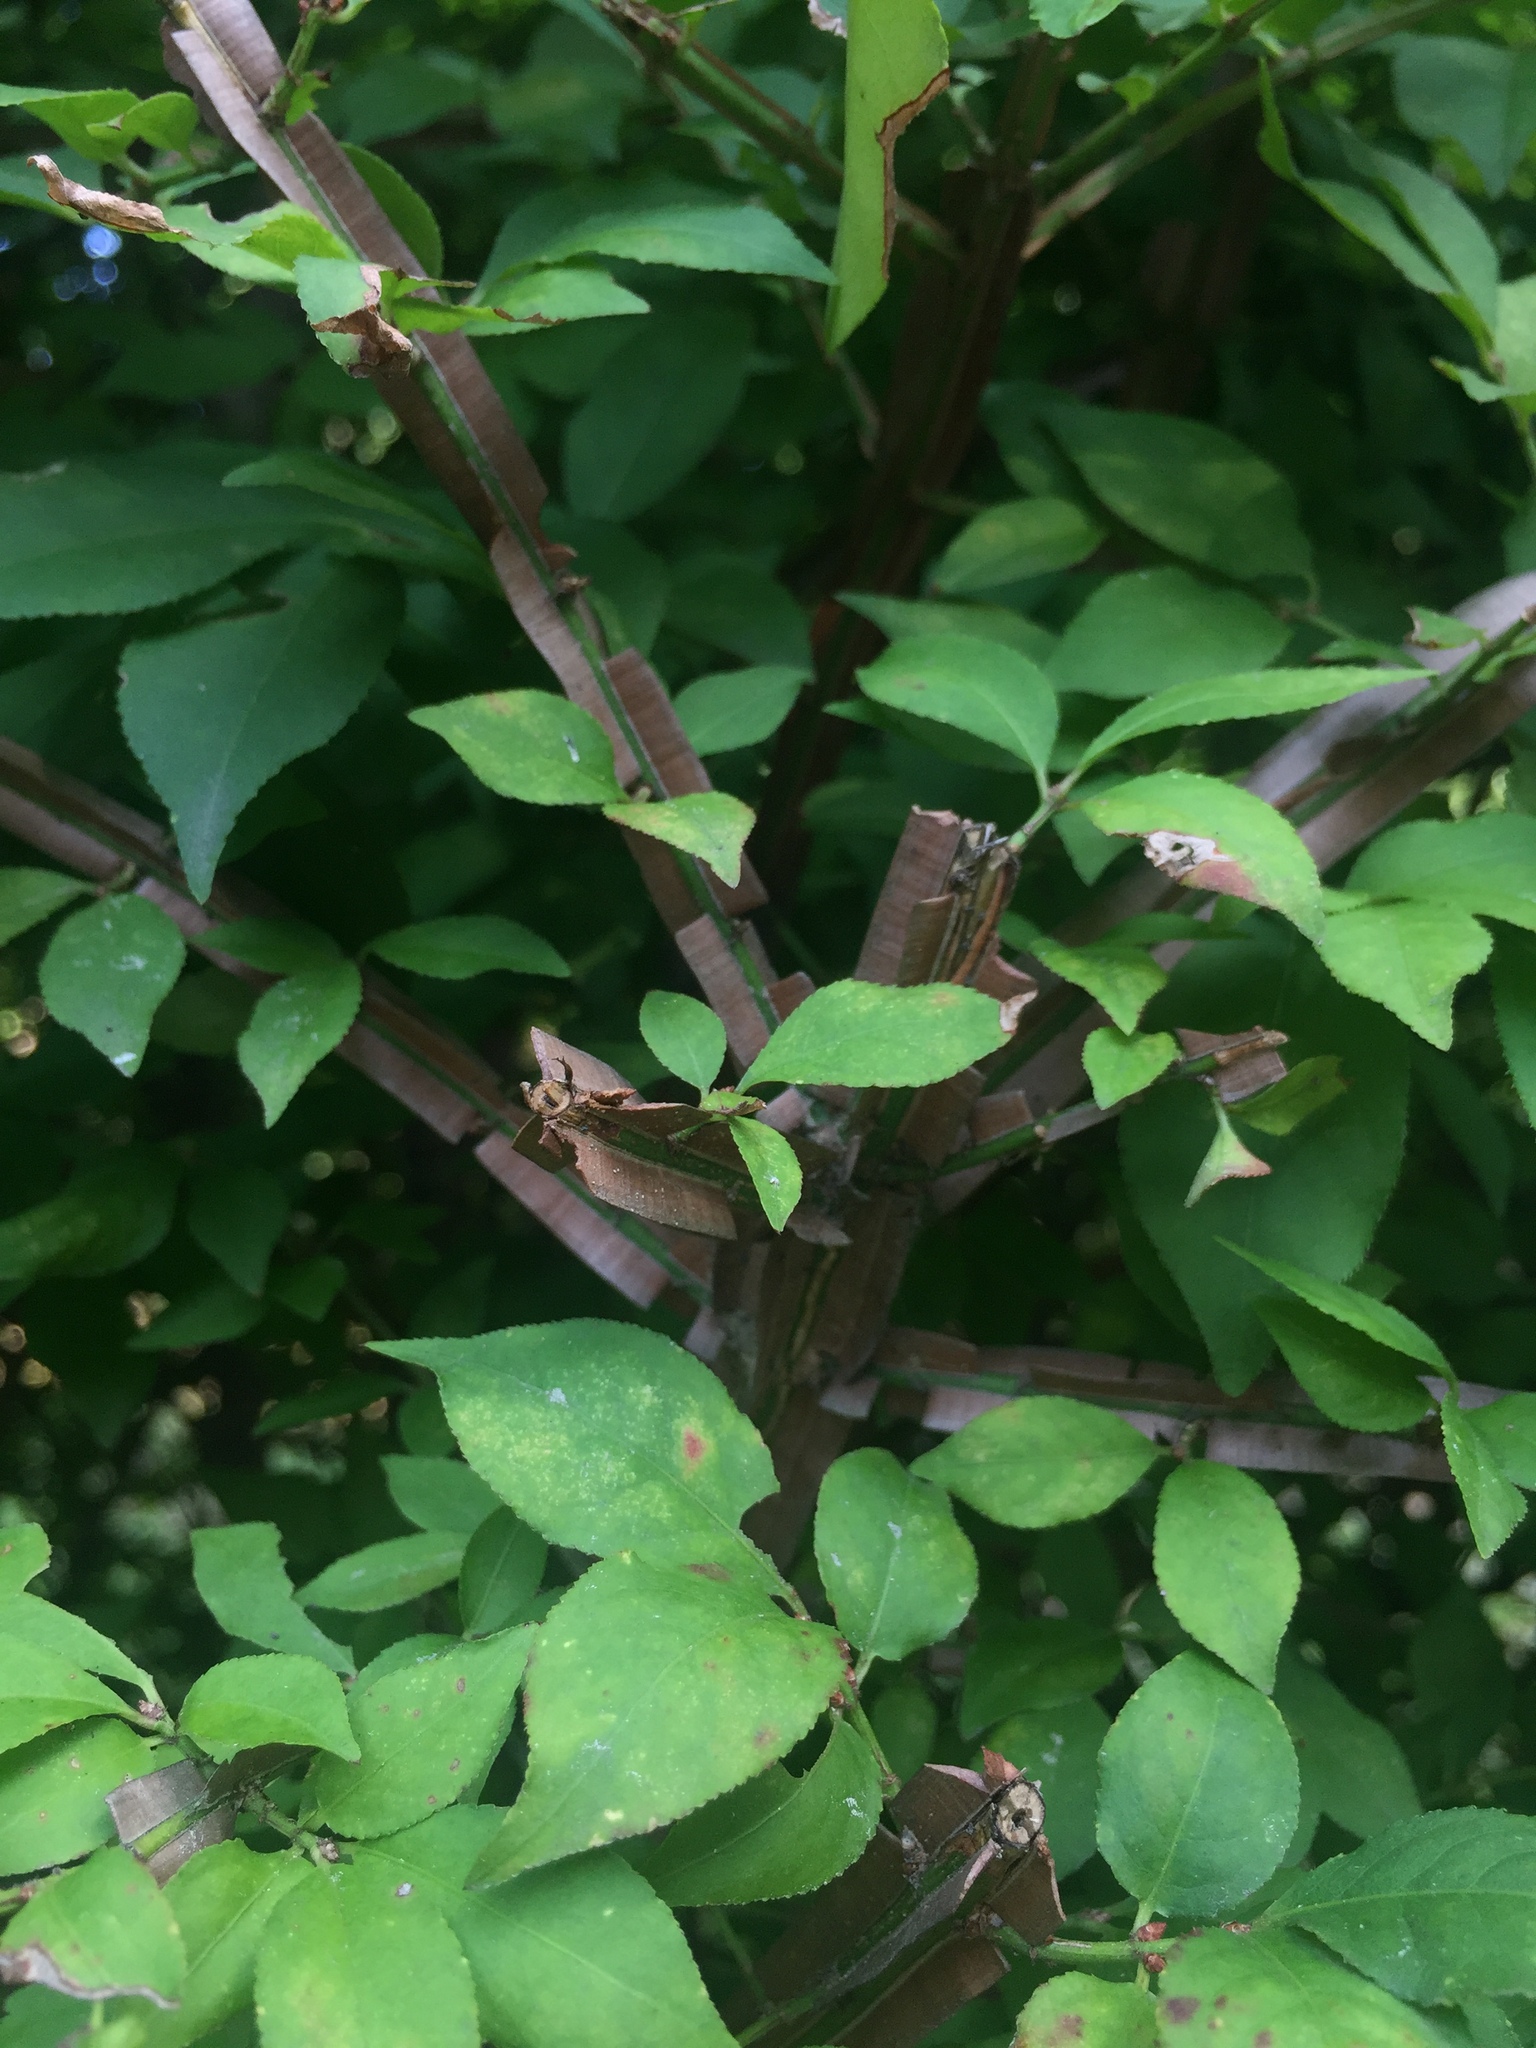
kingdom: Plantae
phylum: Tracheophyta
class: Magnoliopsida
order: Celastrales
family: Celastraceae
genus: Euonymus
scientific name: Euonymus alatus
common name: Winged euonymus
